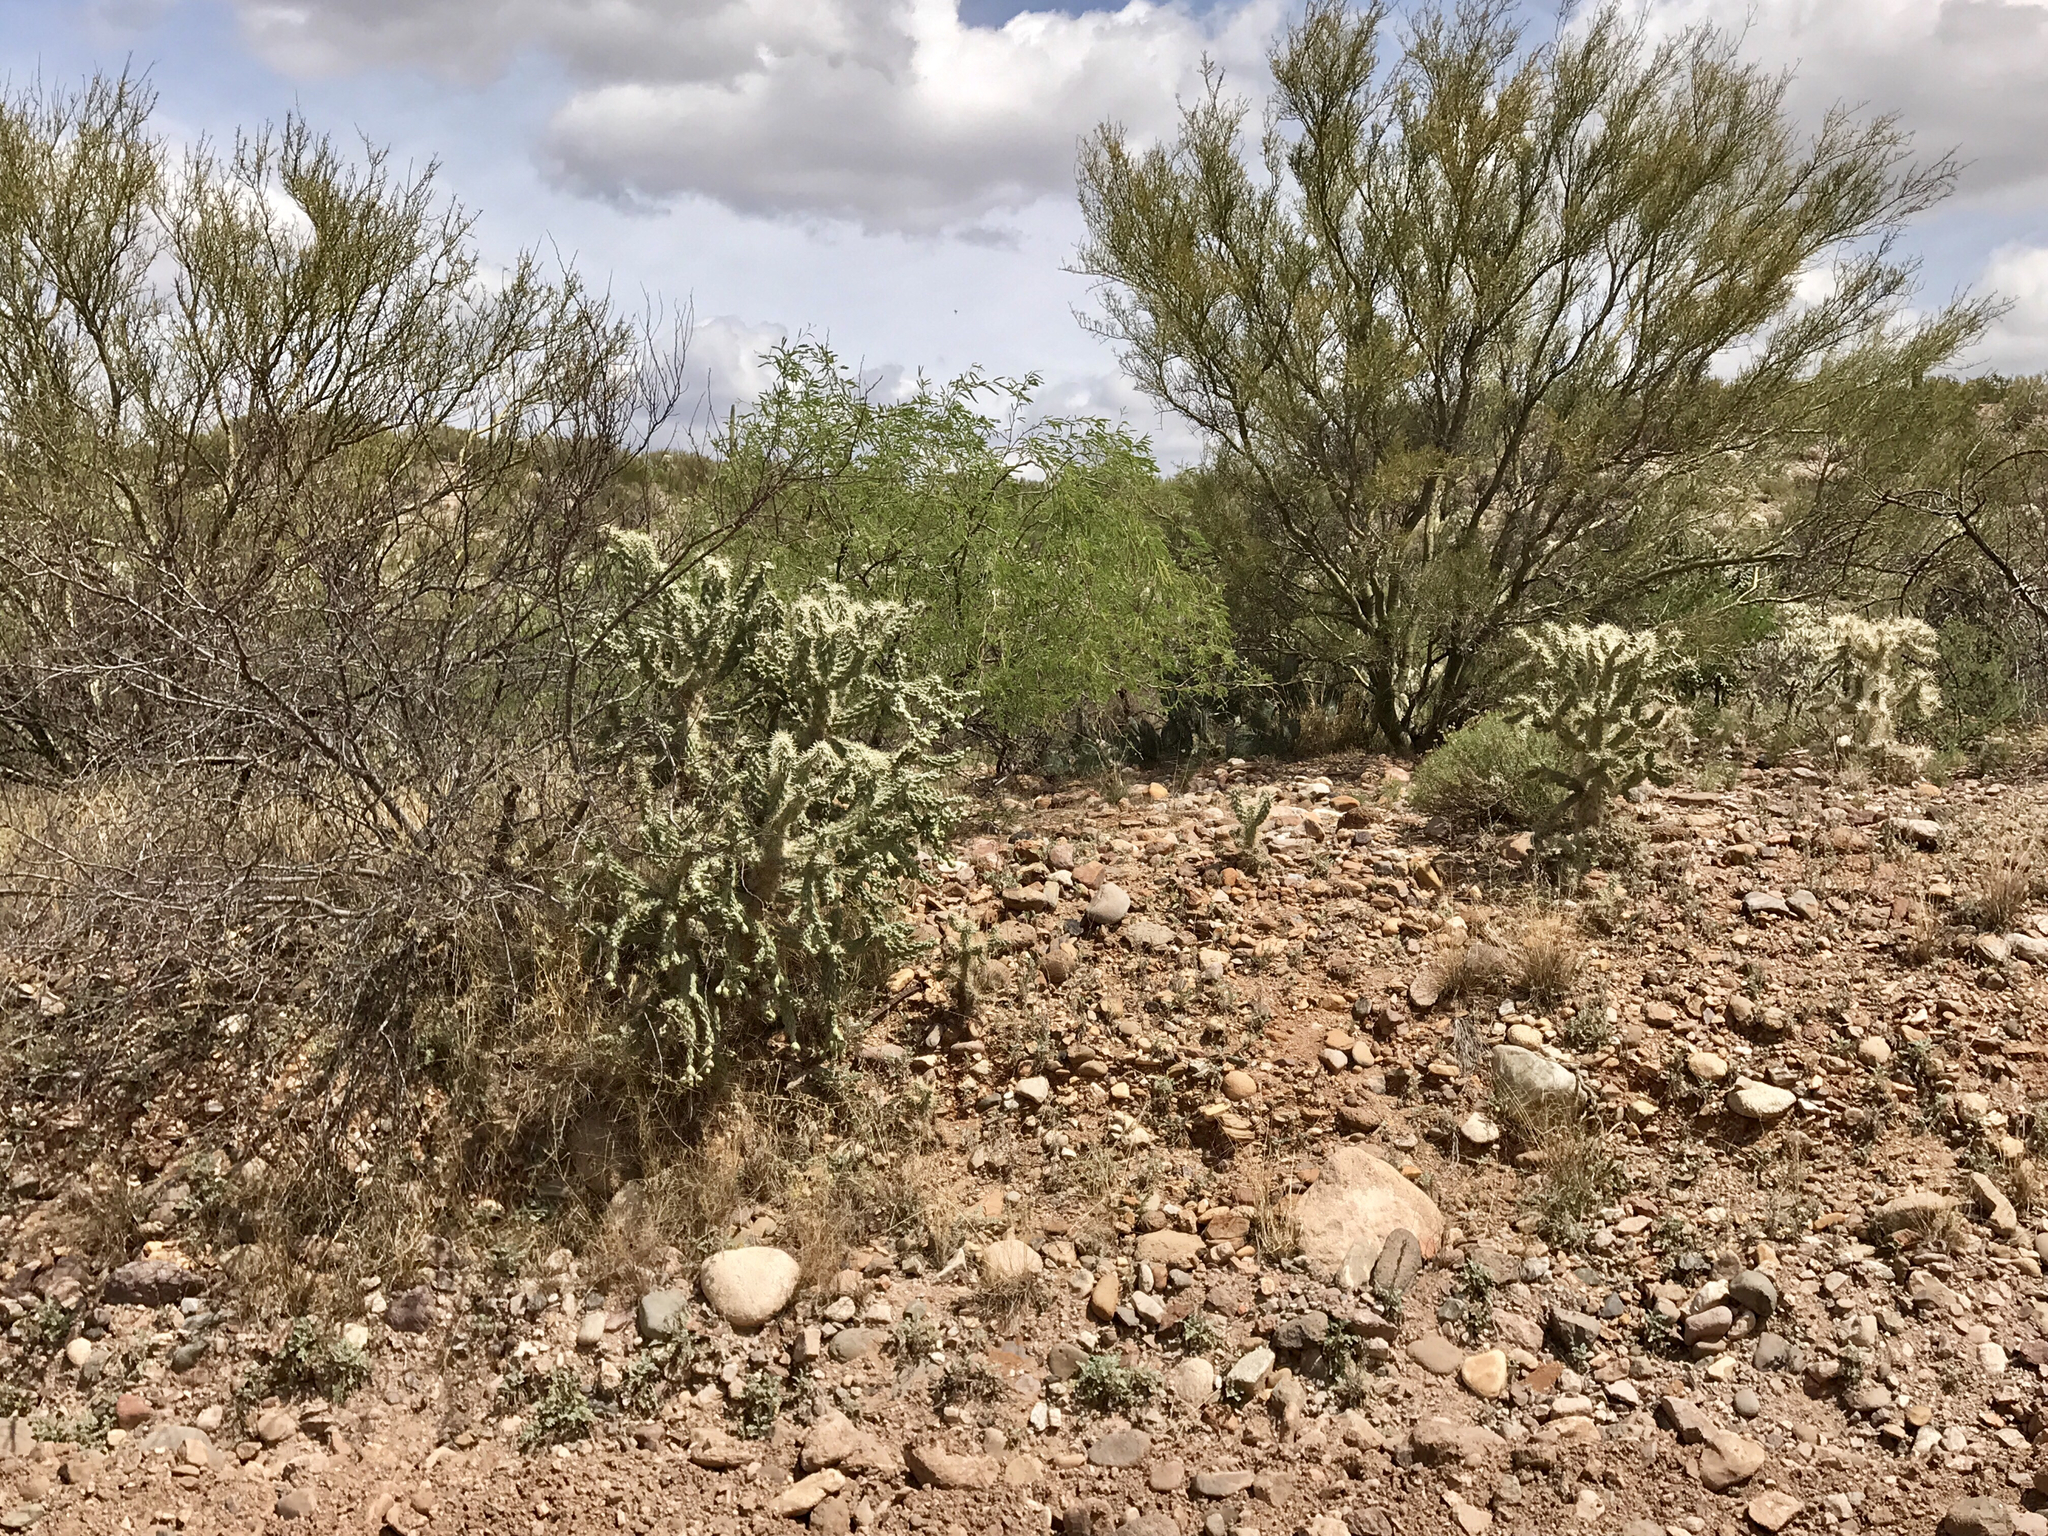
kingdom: Plantae
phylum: Tracheophyta
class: Magnoliopsida
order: Caryophyllales
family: Cactaceae
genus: Cylindropuntia
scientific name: Cylindropuntia fulgida
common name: Jumping cholla
